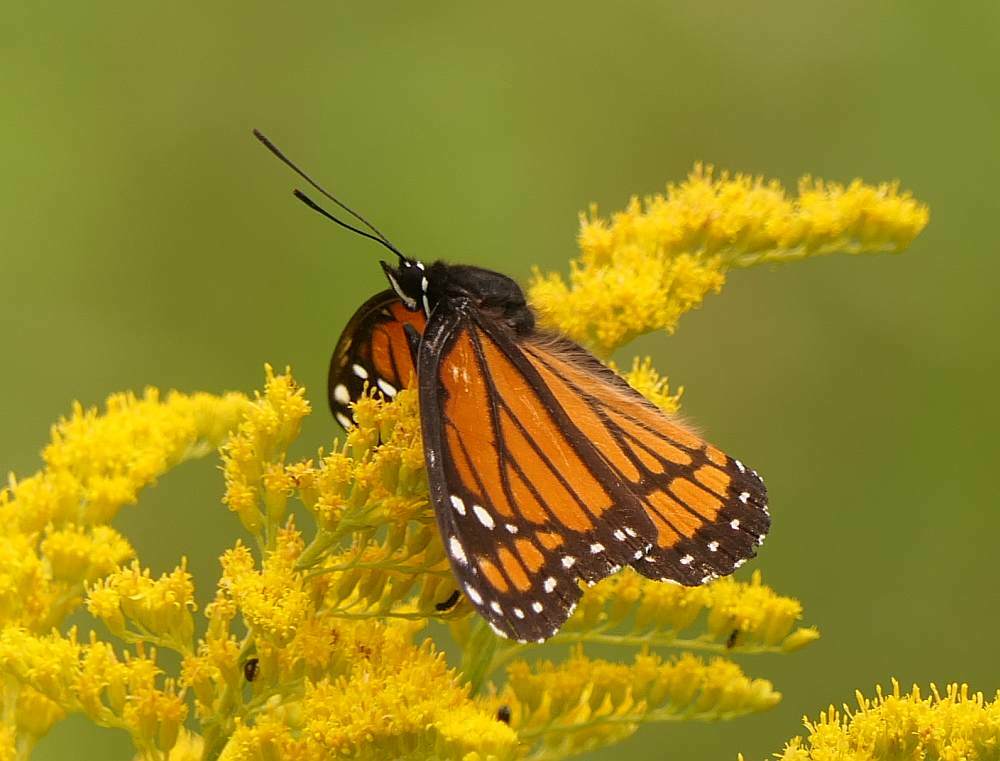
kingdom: Animalia
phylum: Arthropoda
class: Insecta
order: Lepidoptera
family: Nymphalidae
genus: Limenitis
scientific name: Limenitis archippus
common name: Viceroy
